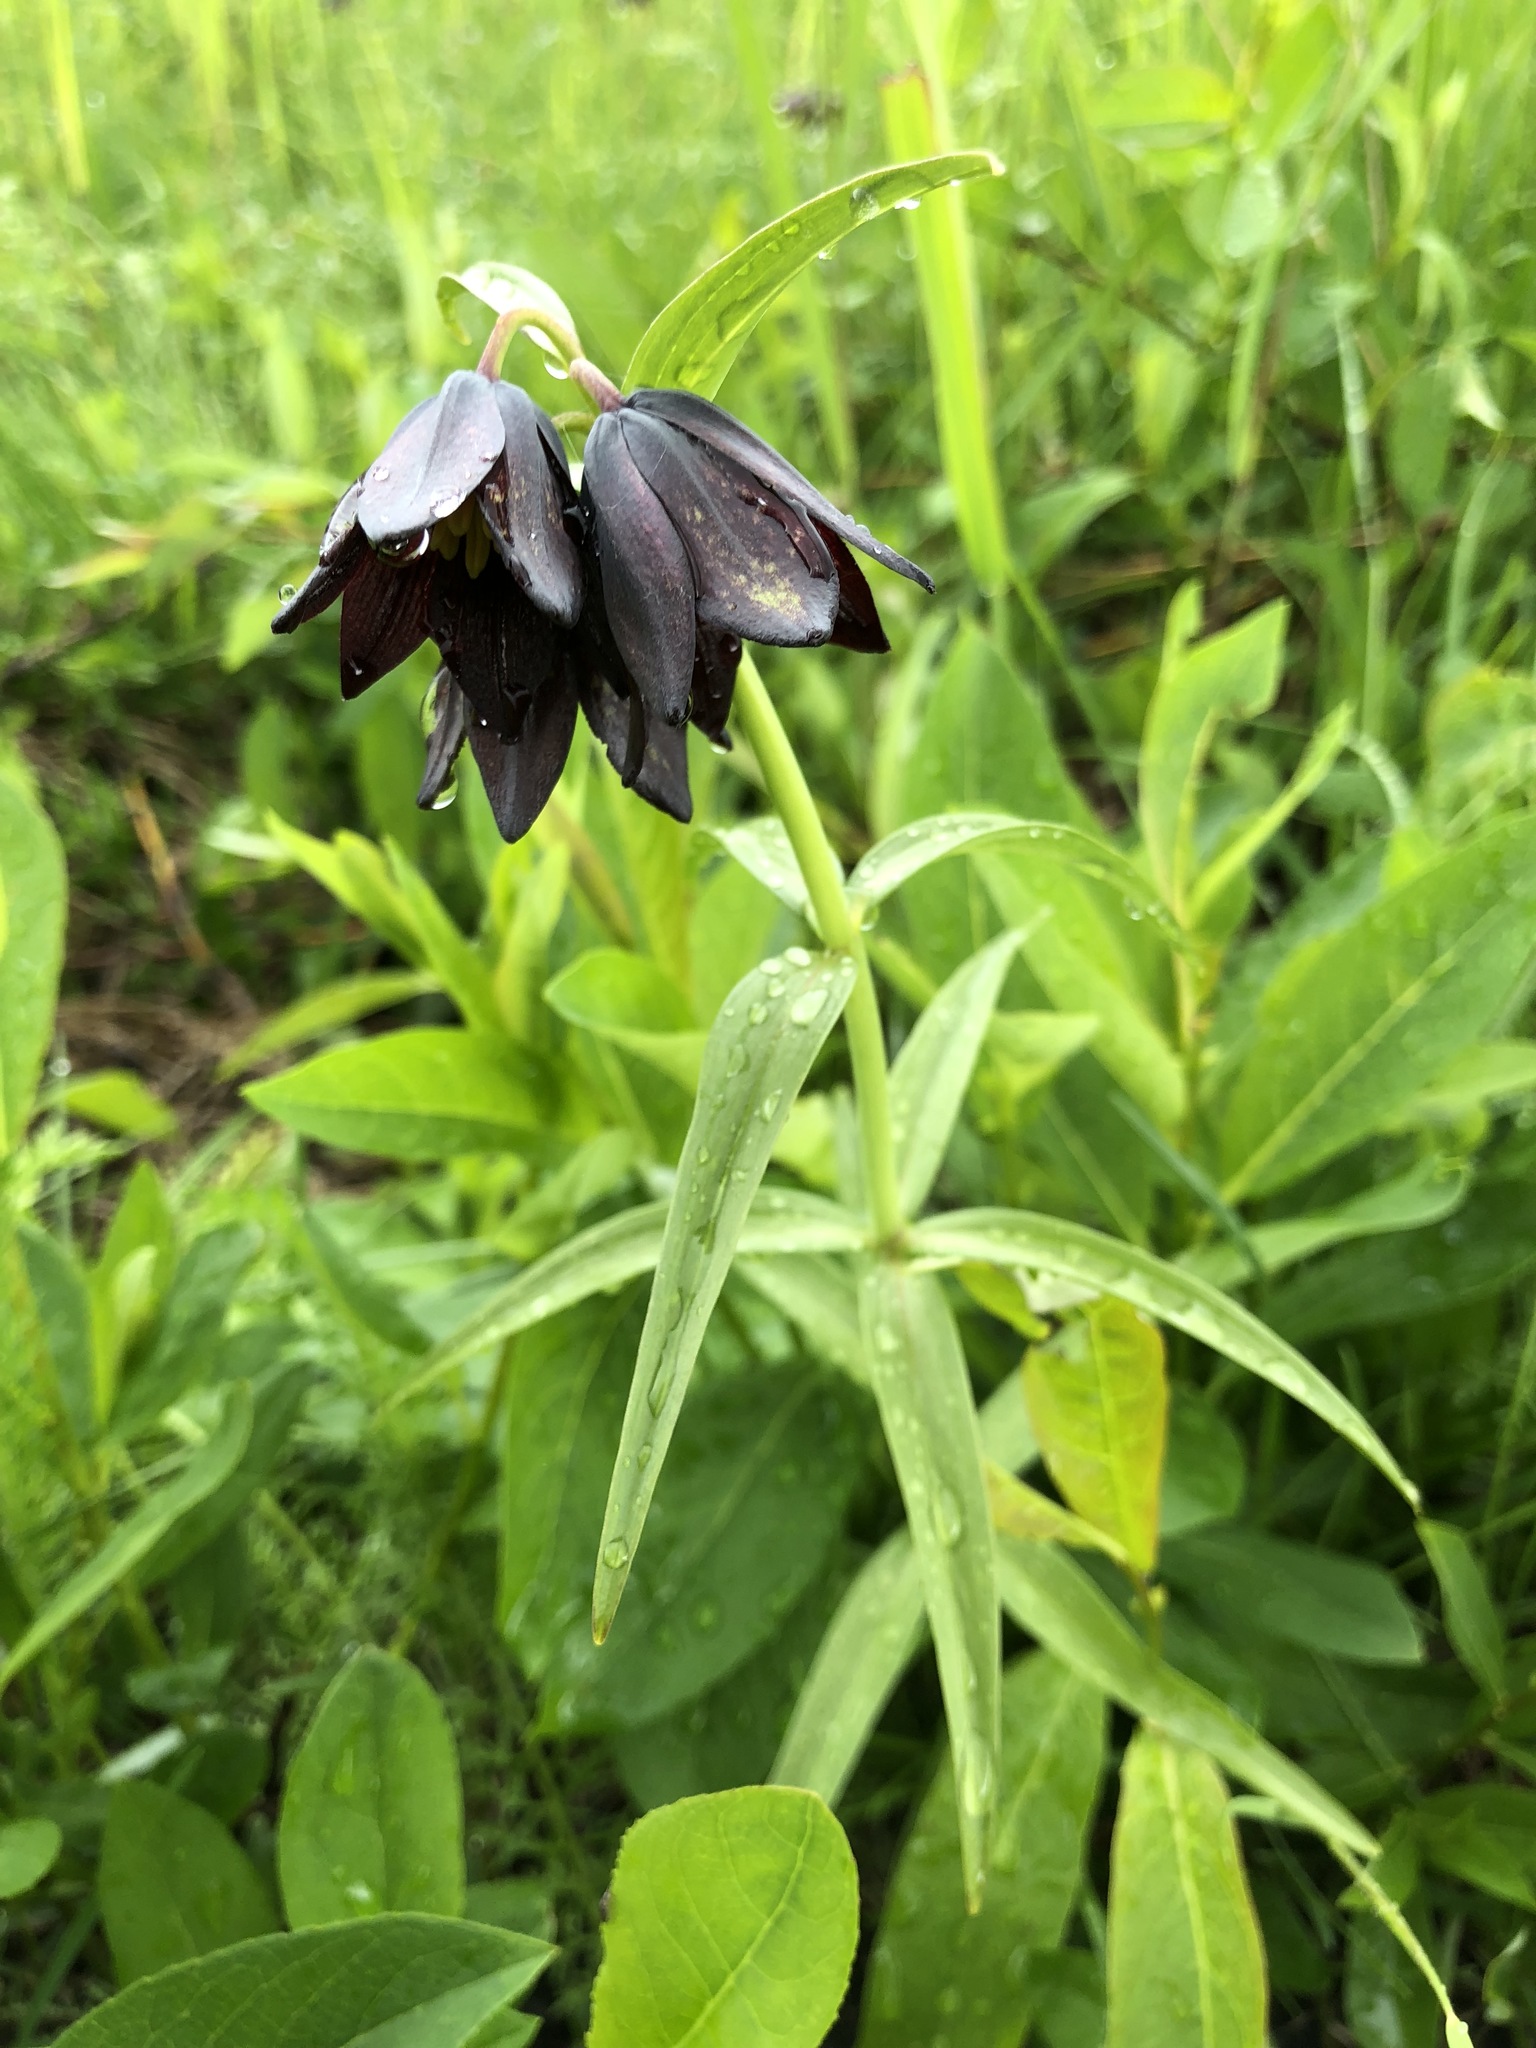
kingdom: Plantae
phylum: Tracheophyta
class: Liliopsida
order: Liliales
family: Liliaceae
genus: Fritillaria
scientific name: Fritillaria camschatcensis
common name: Kamchatka fritillary
